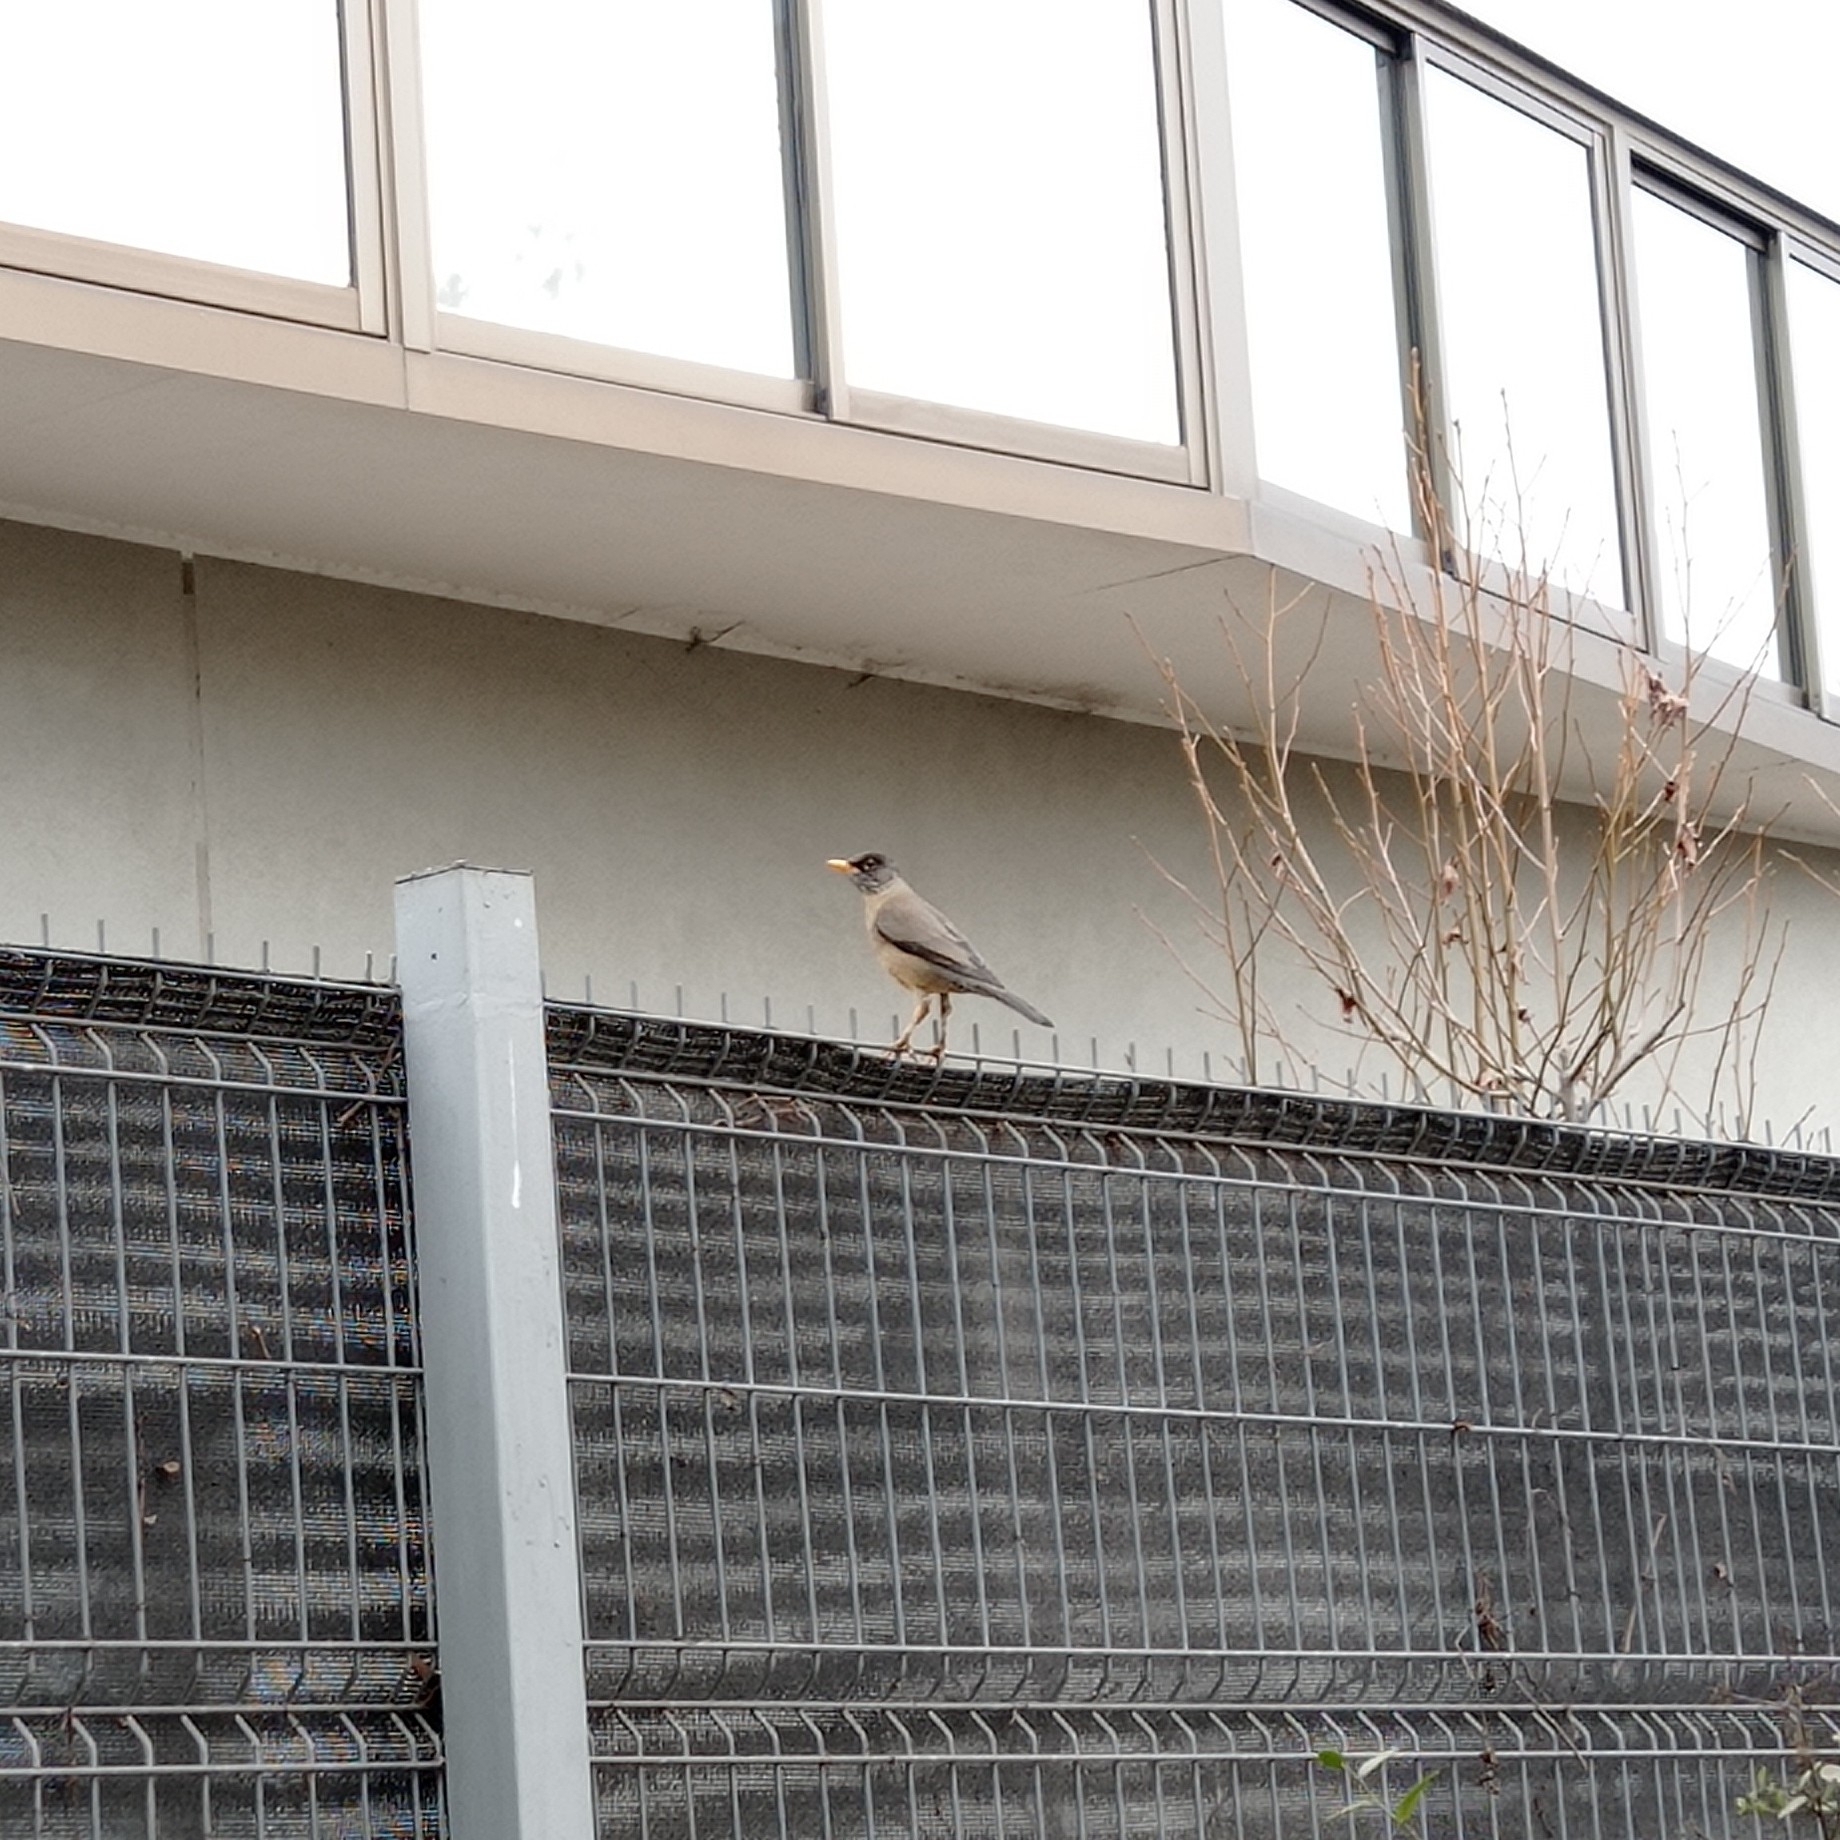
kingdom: Animalia
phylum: Chordata
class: Aves
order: Passeriformes
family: Turdidae
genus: Turdus
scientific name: Turdus falcklandii
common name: Austral thrush
